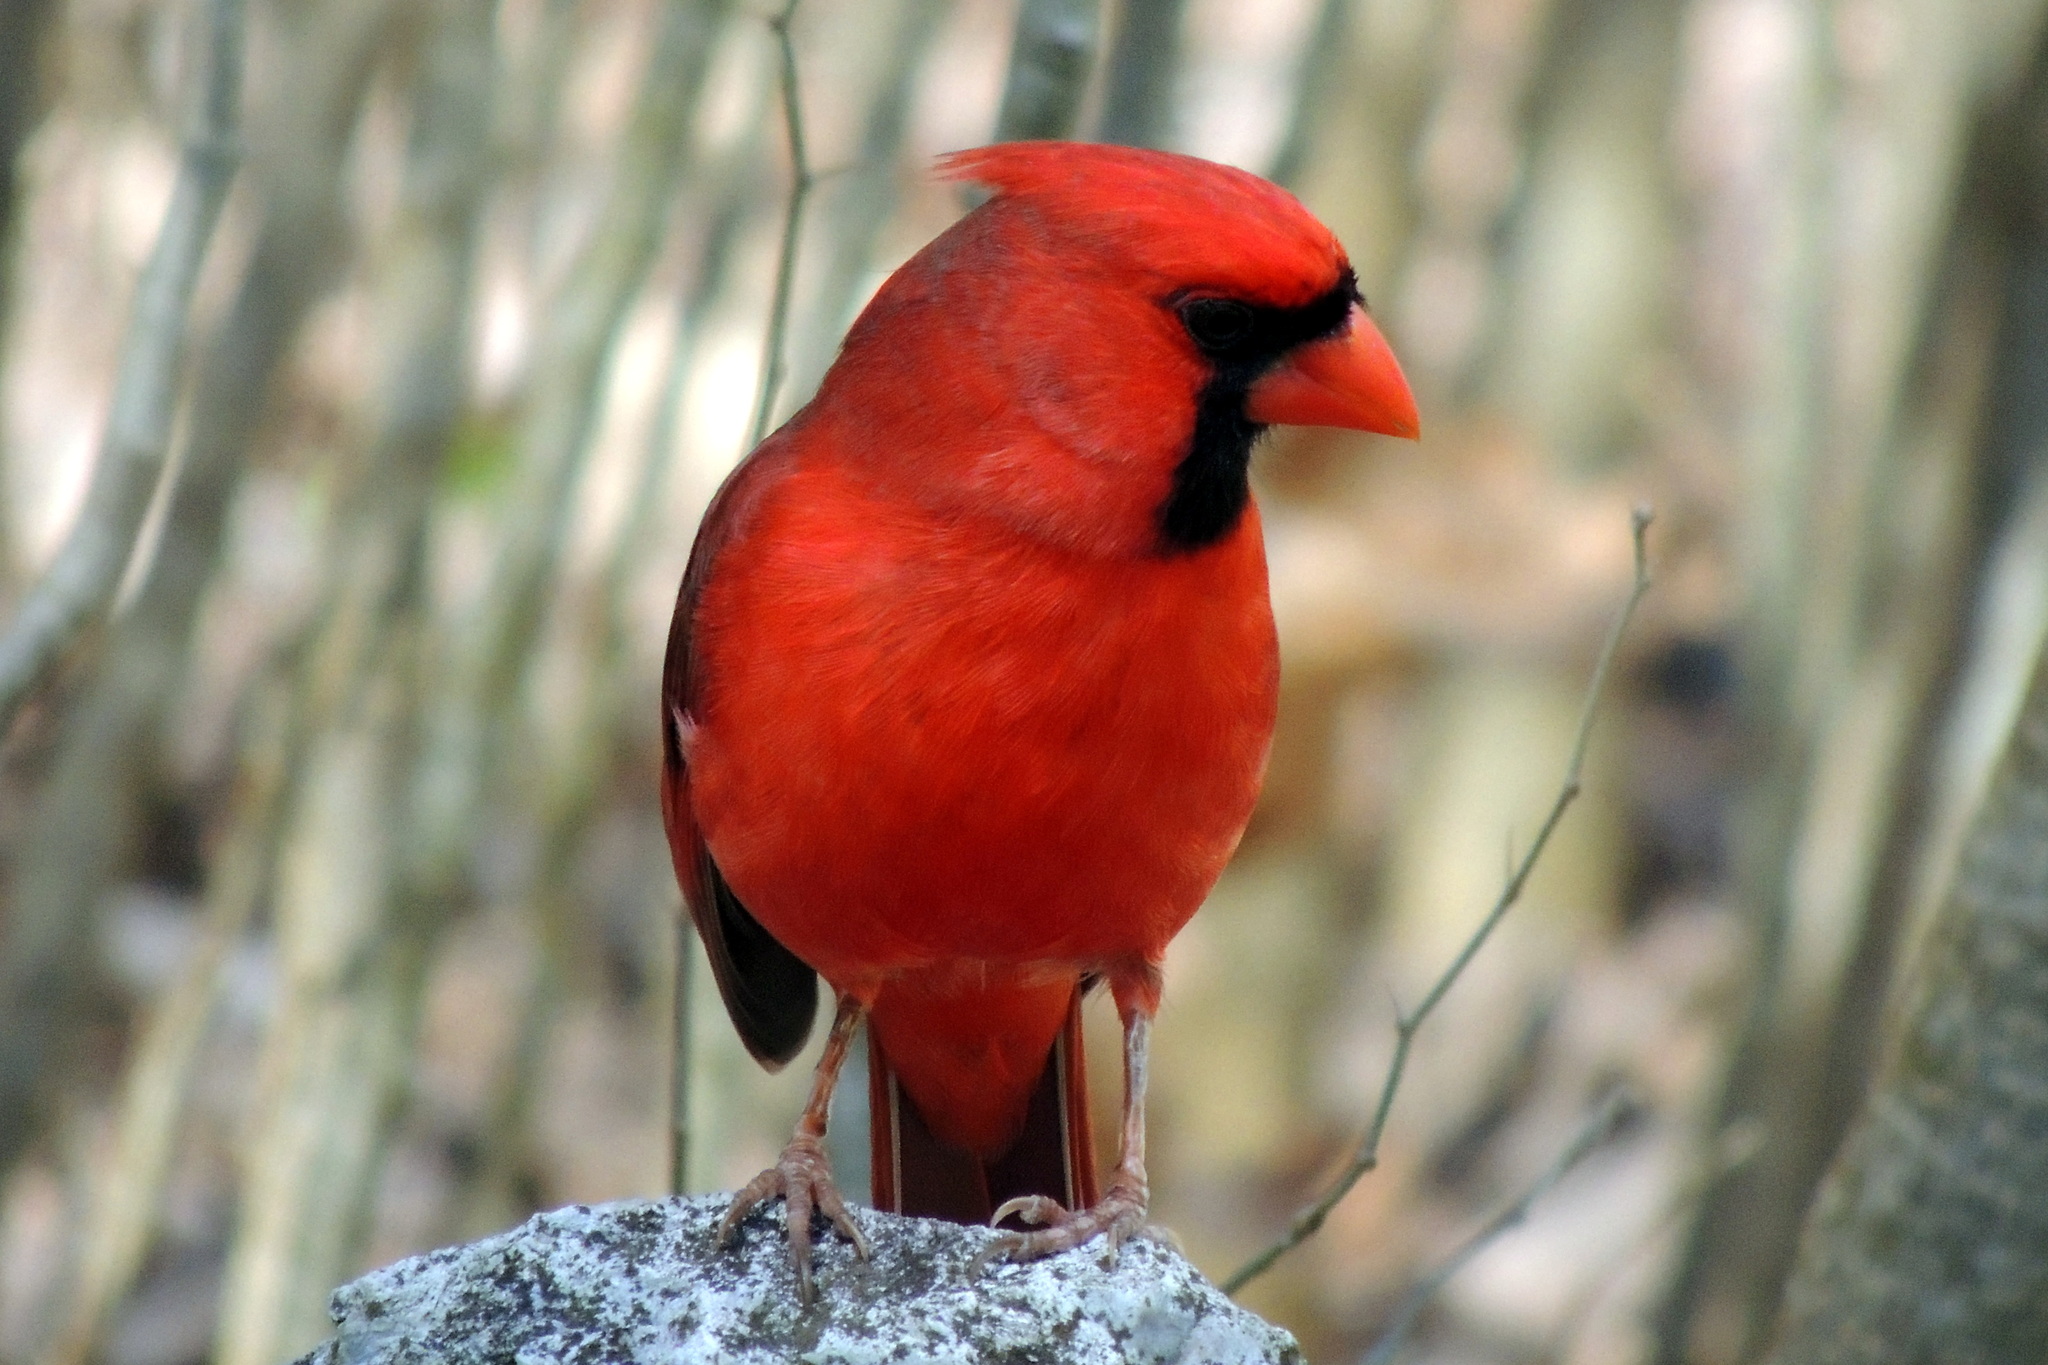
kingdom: Animalia
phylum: Chordata
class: Aves
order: Passeriformes
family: Cardinalidae
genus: Cardinalis
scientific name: Cardinalis cardinalis
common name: Northern cardinal
